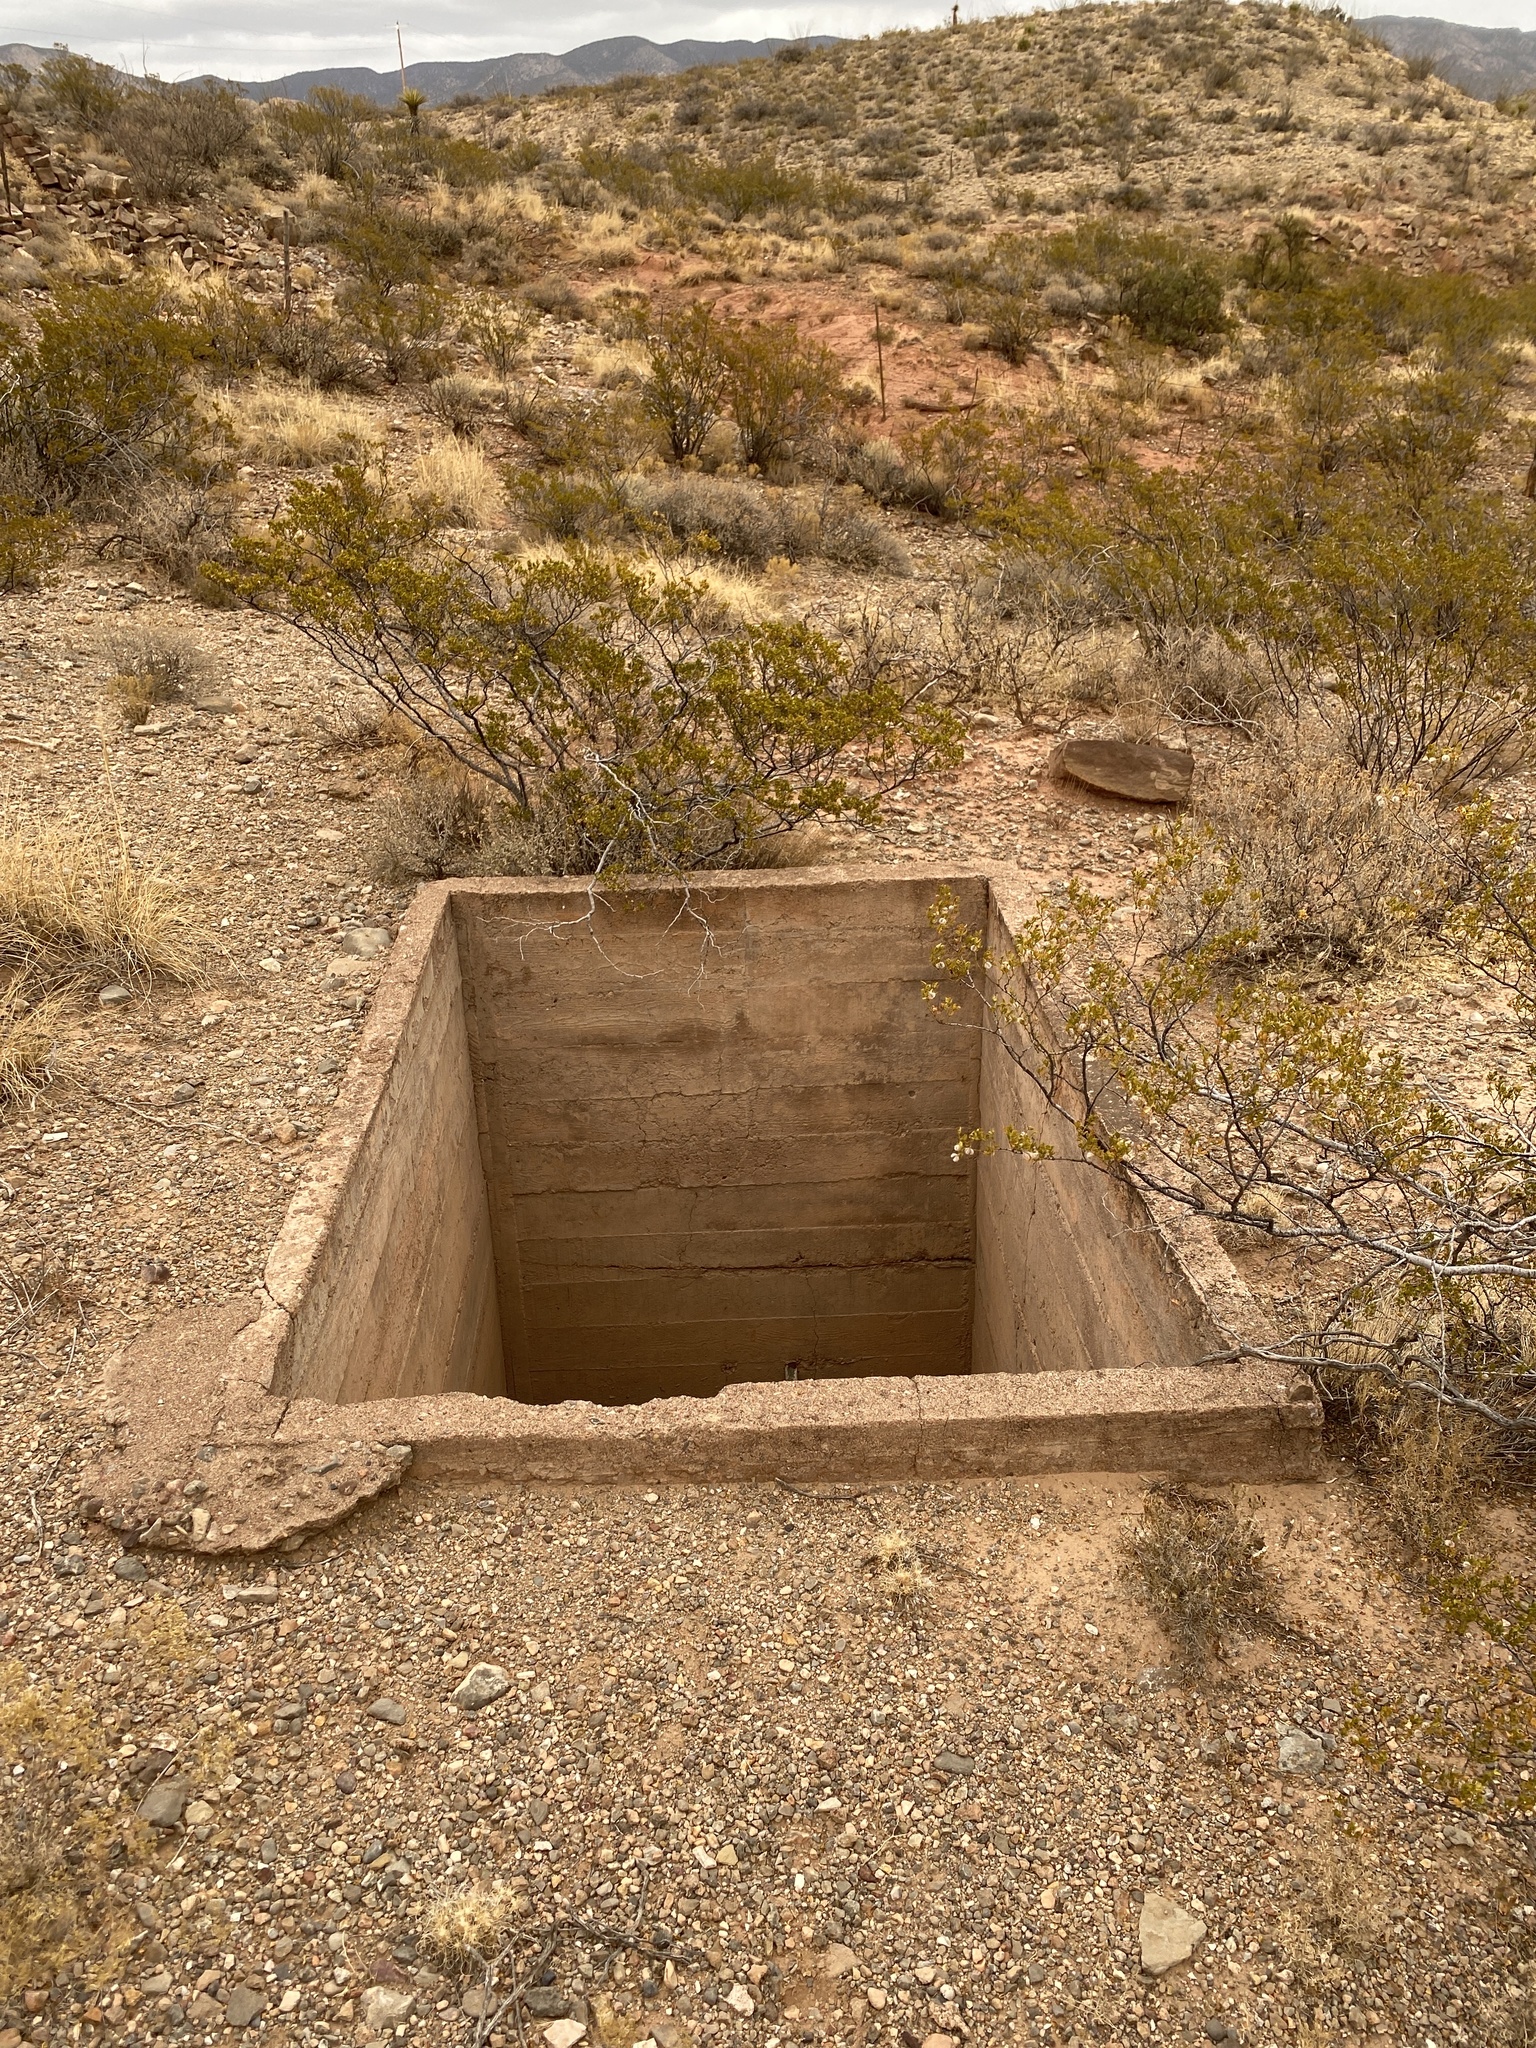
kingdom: Plantae
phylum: Tracheophyta
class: Magnoliopsida
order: Zygophyllales
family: Zygophyllaceae
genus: Larrea
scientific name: Larrea tridentata
